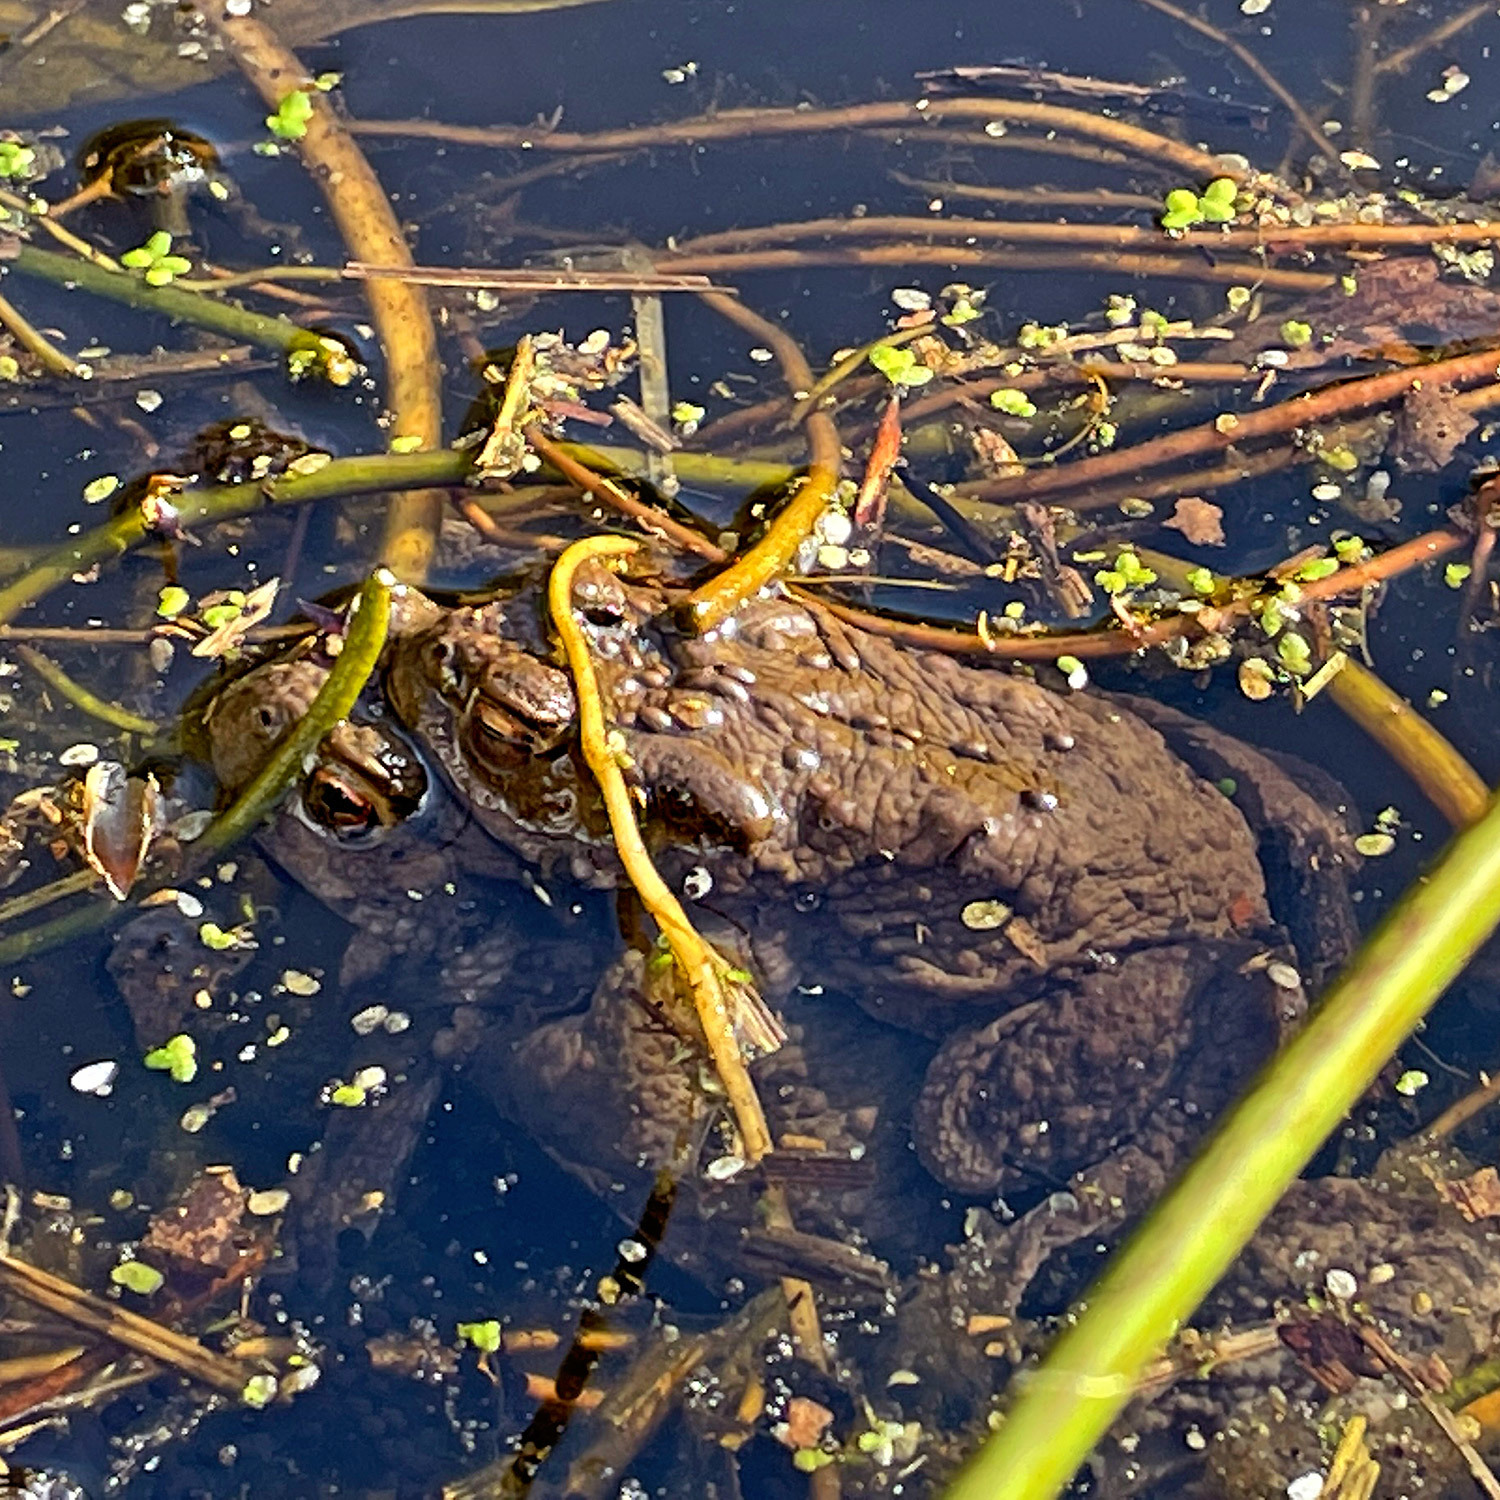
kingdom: Animalia
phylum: Chordata
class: Amphibia
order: Anura
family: Bufonidae
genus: Bufo
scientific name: Bufo bufo
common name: Common toad
